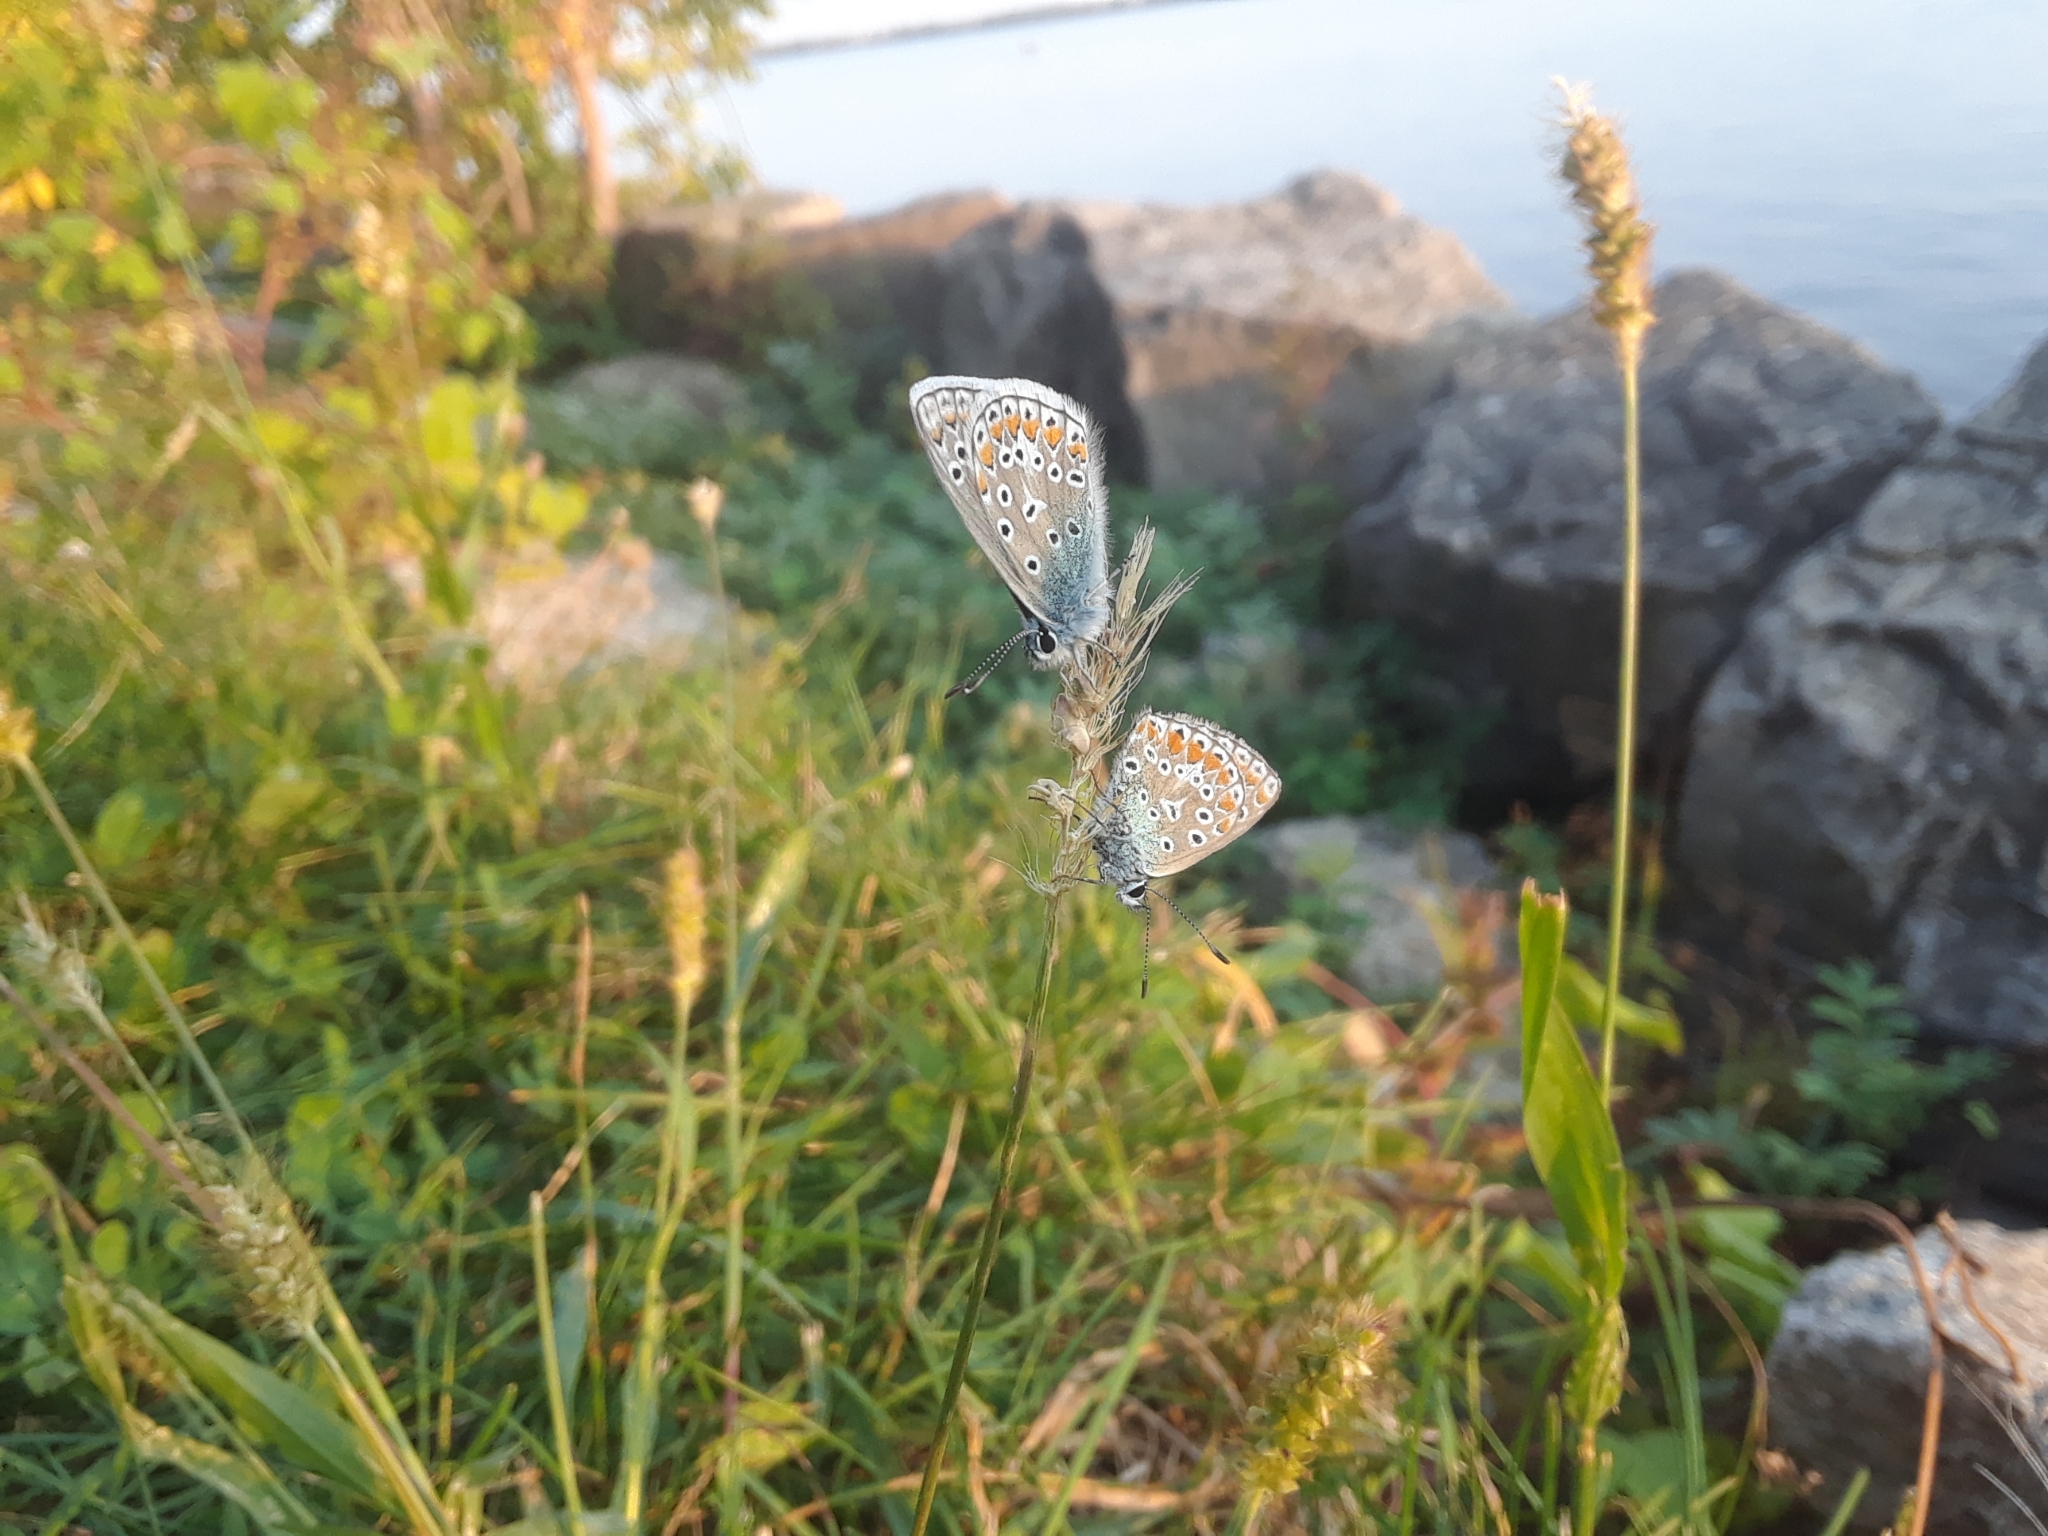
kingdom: Animalia
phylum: Arthropoda
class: Insecta
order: Lepidoptera
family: Lycaenidae
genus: Polyommatus
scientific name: Polyommatus icarus
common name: Common blue
